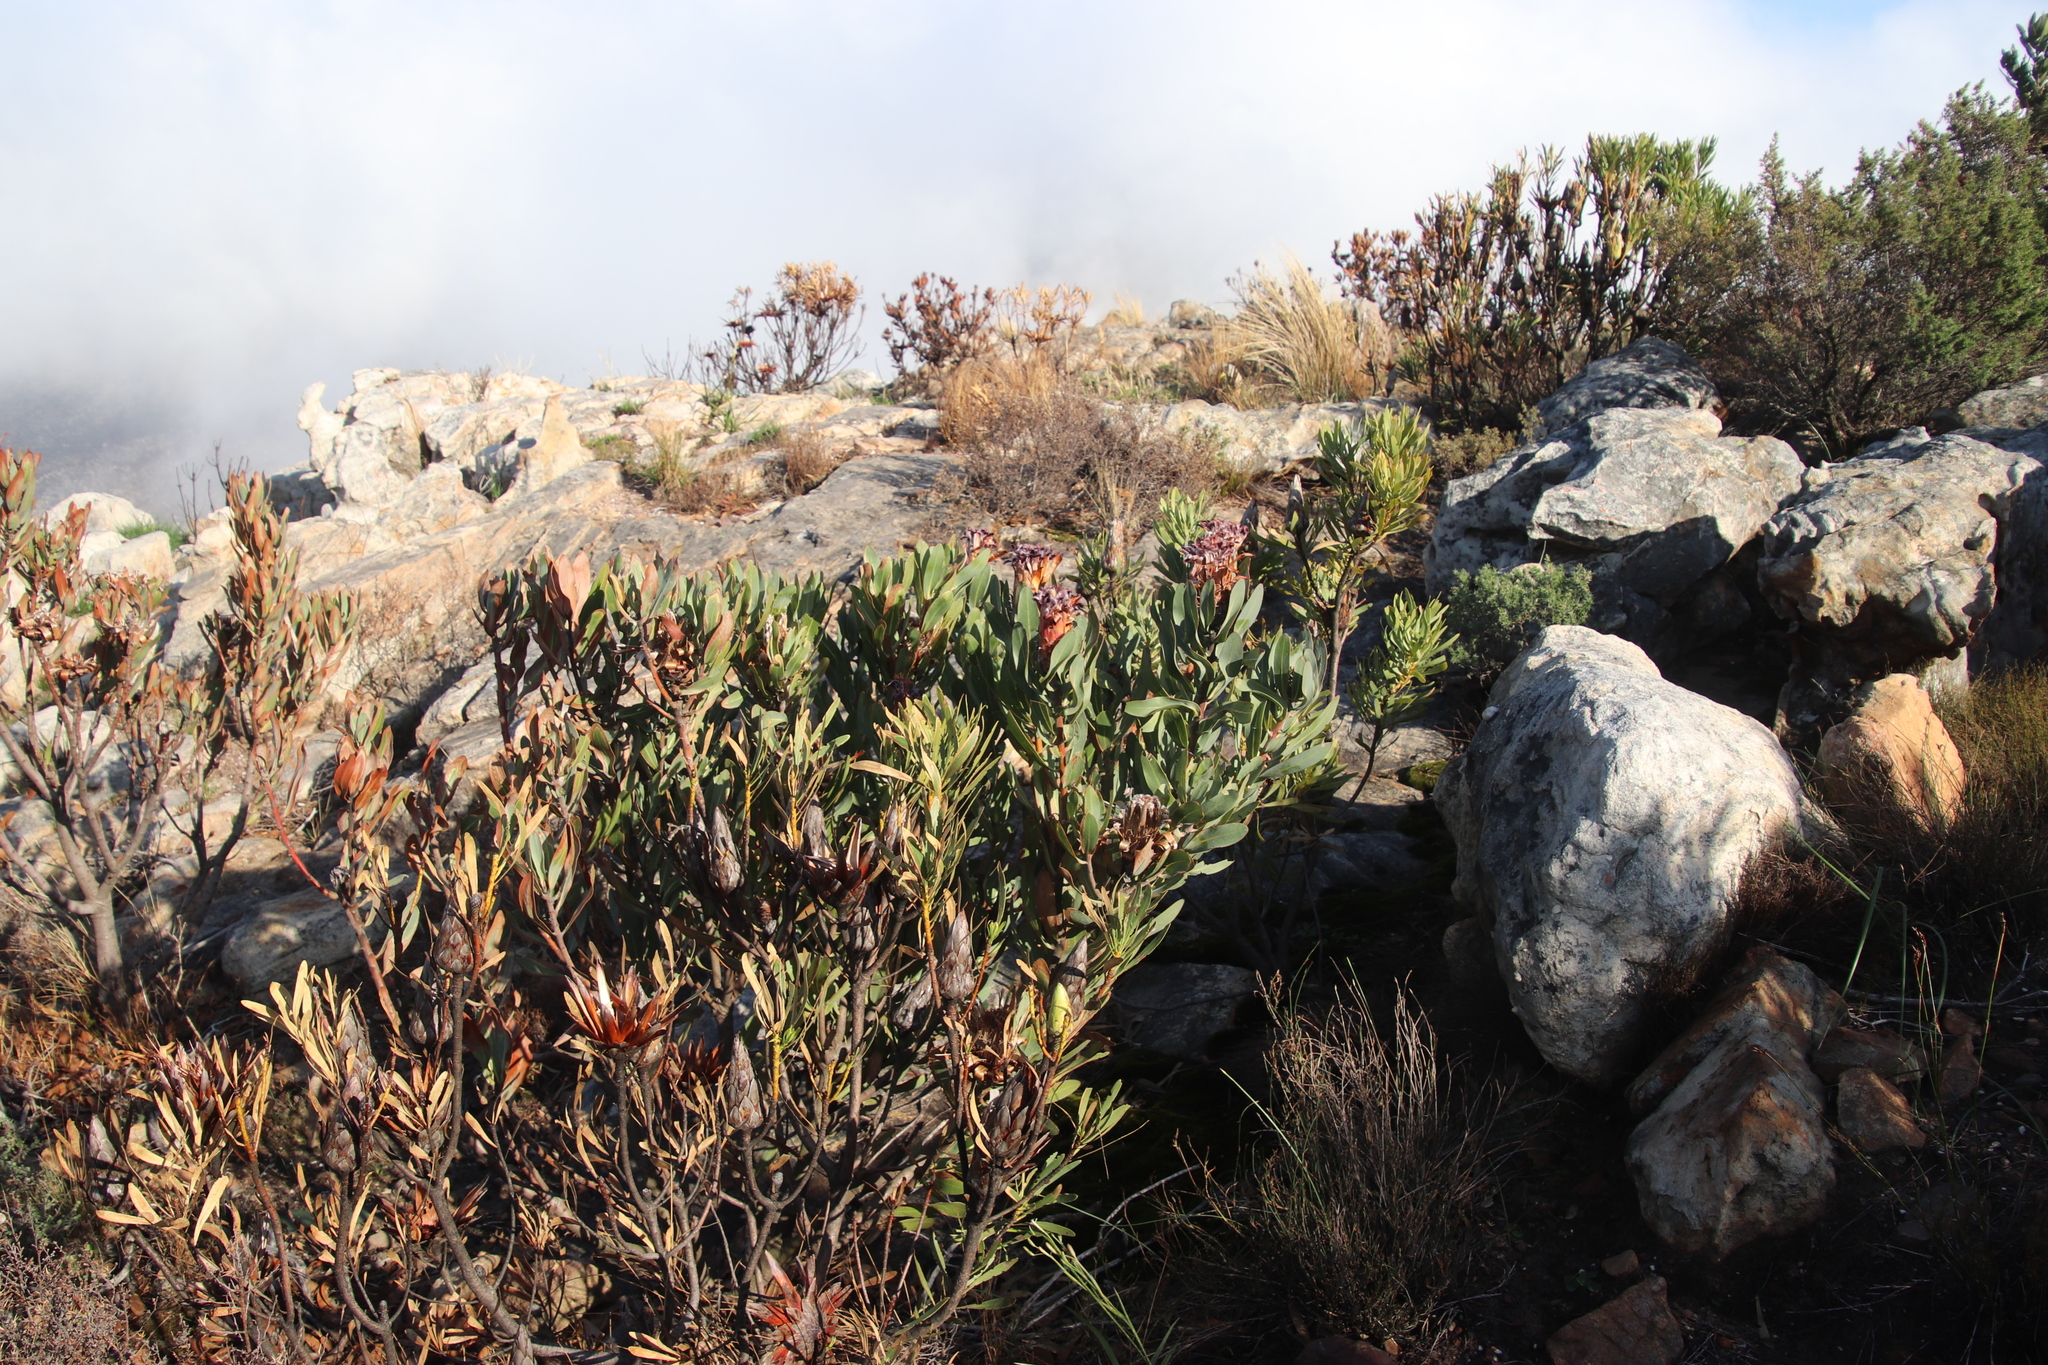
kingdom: Plantae
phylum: Tracheophyta
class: Magnoliopsida
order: Proteales
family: Proteaceae
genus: Protea
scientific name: Protea laurifolia
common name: Grey-leaf sugarbsh
